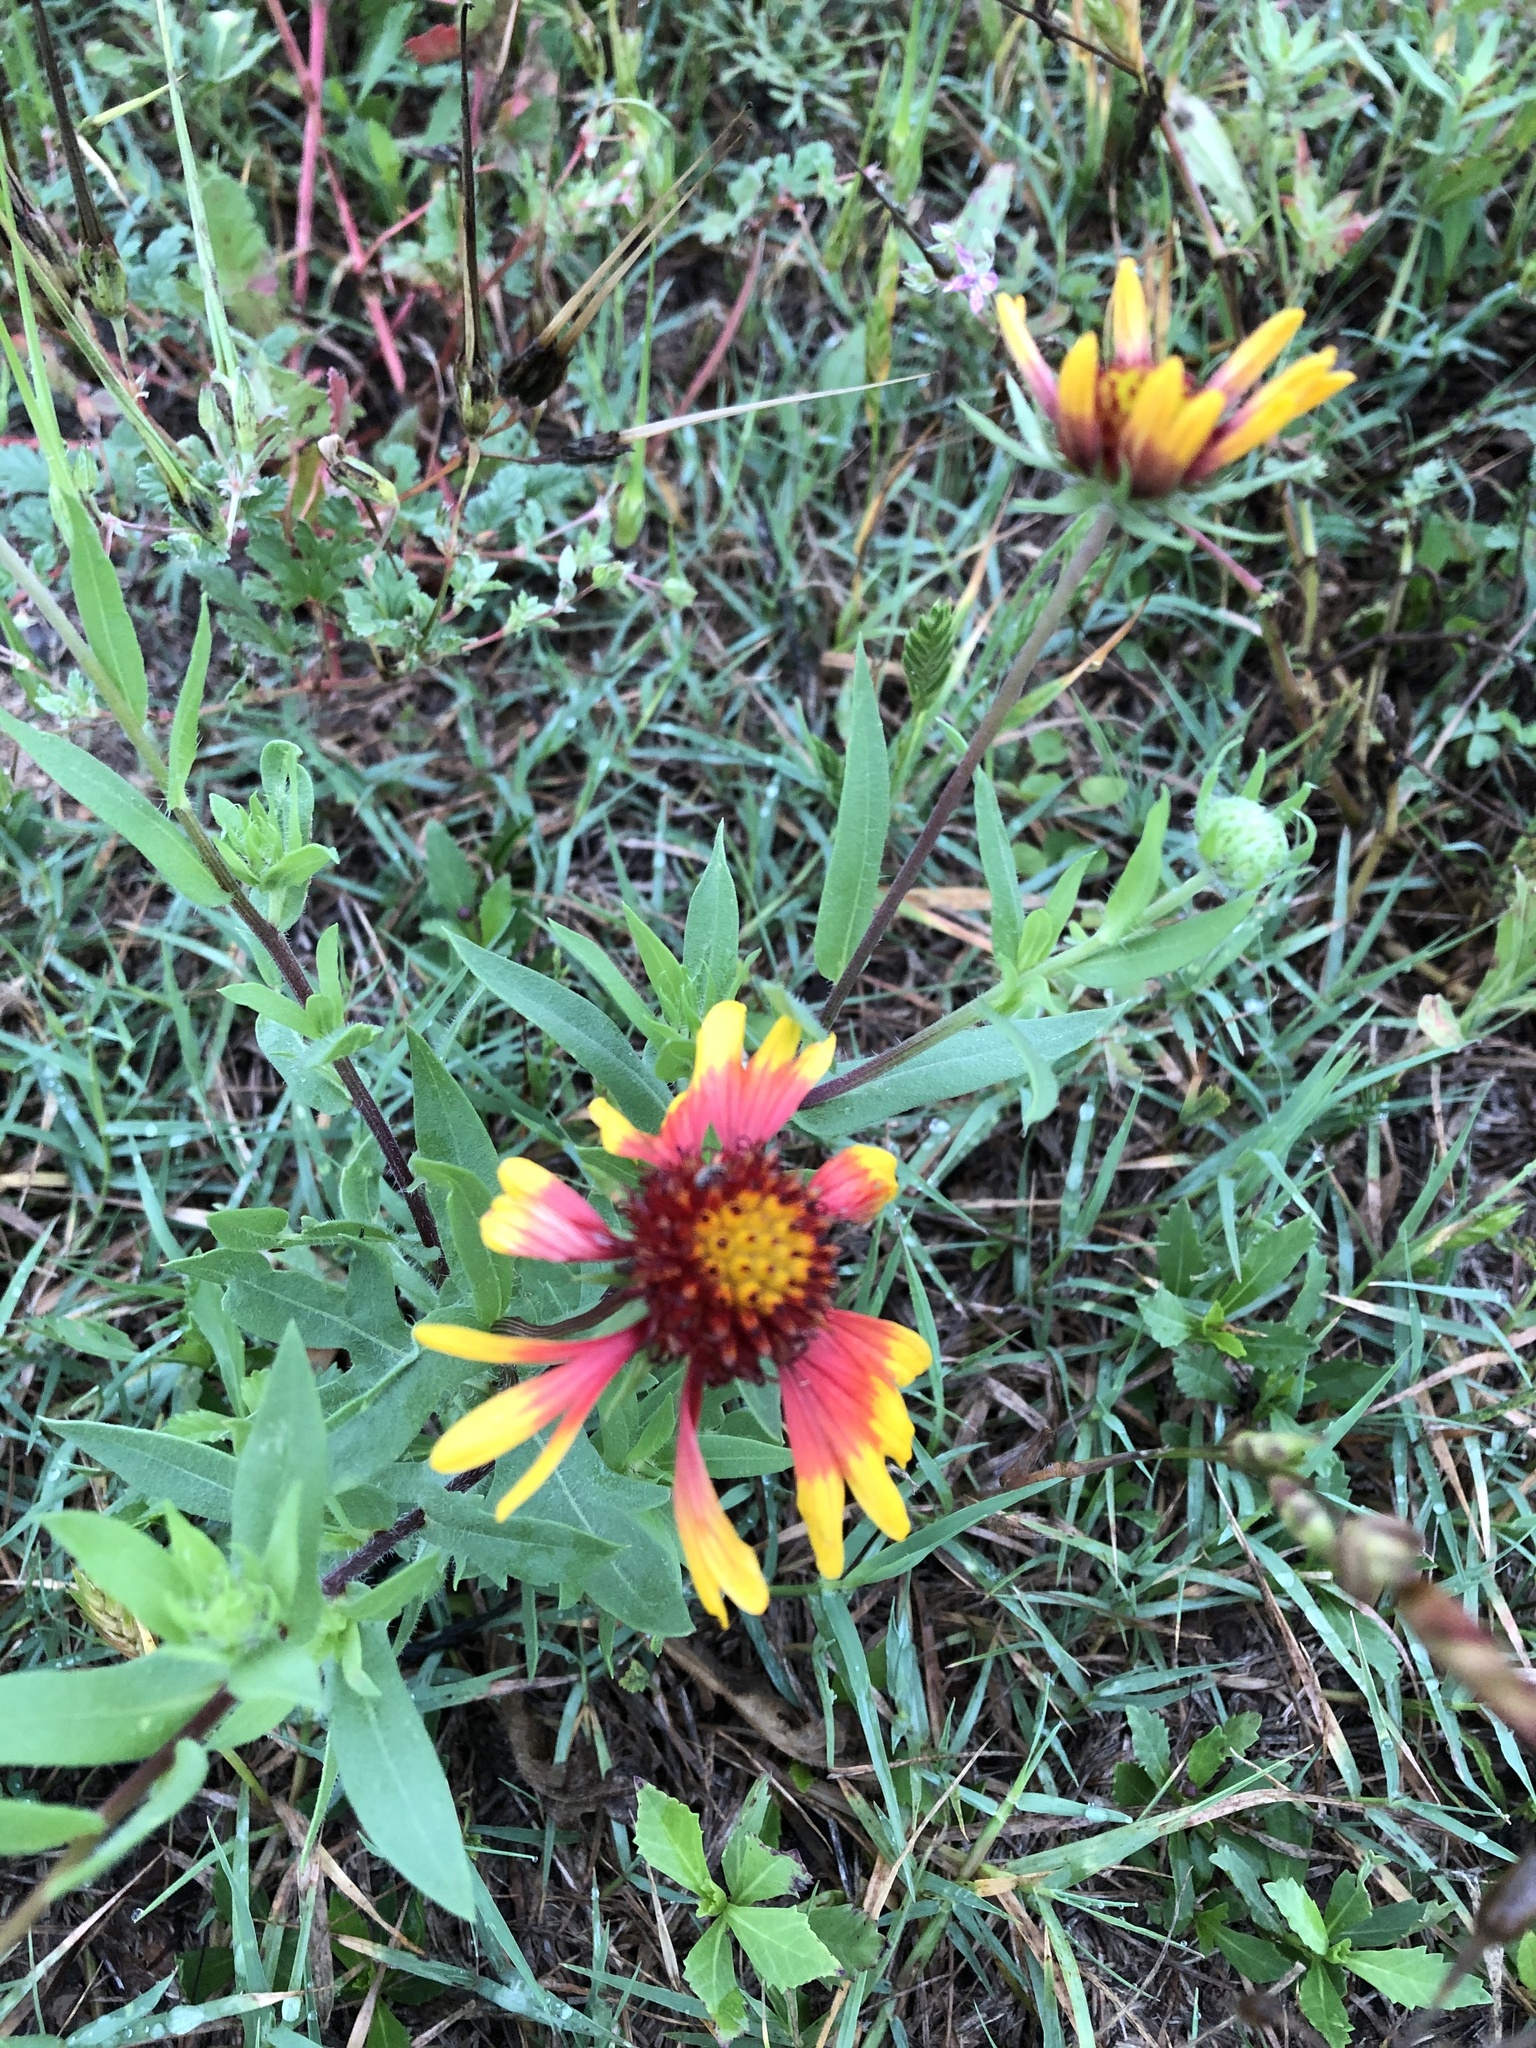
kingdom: Plantae
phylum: Tracheophyta
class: Magnoliopsida
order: Asterales
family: Asteraceae
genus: Gaillardia
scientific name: Gaillardia pulchella
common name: Firewheel
